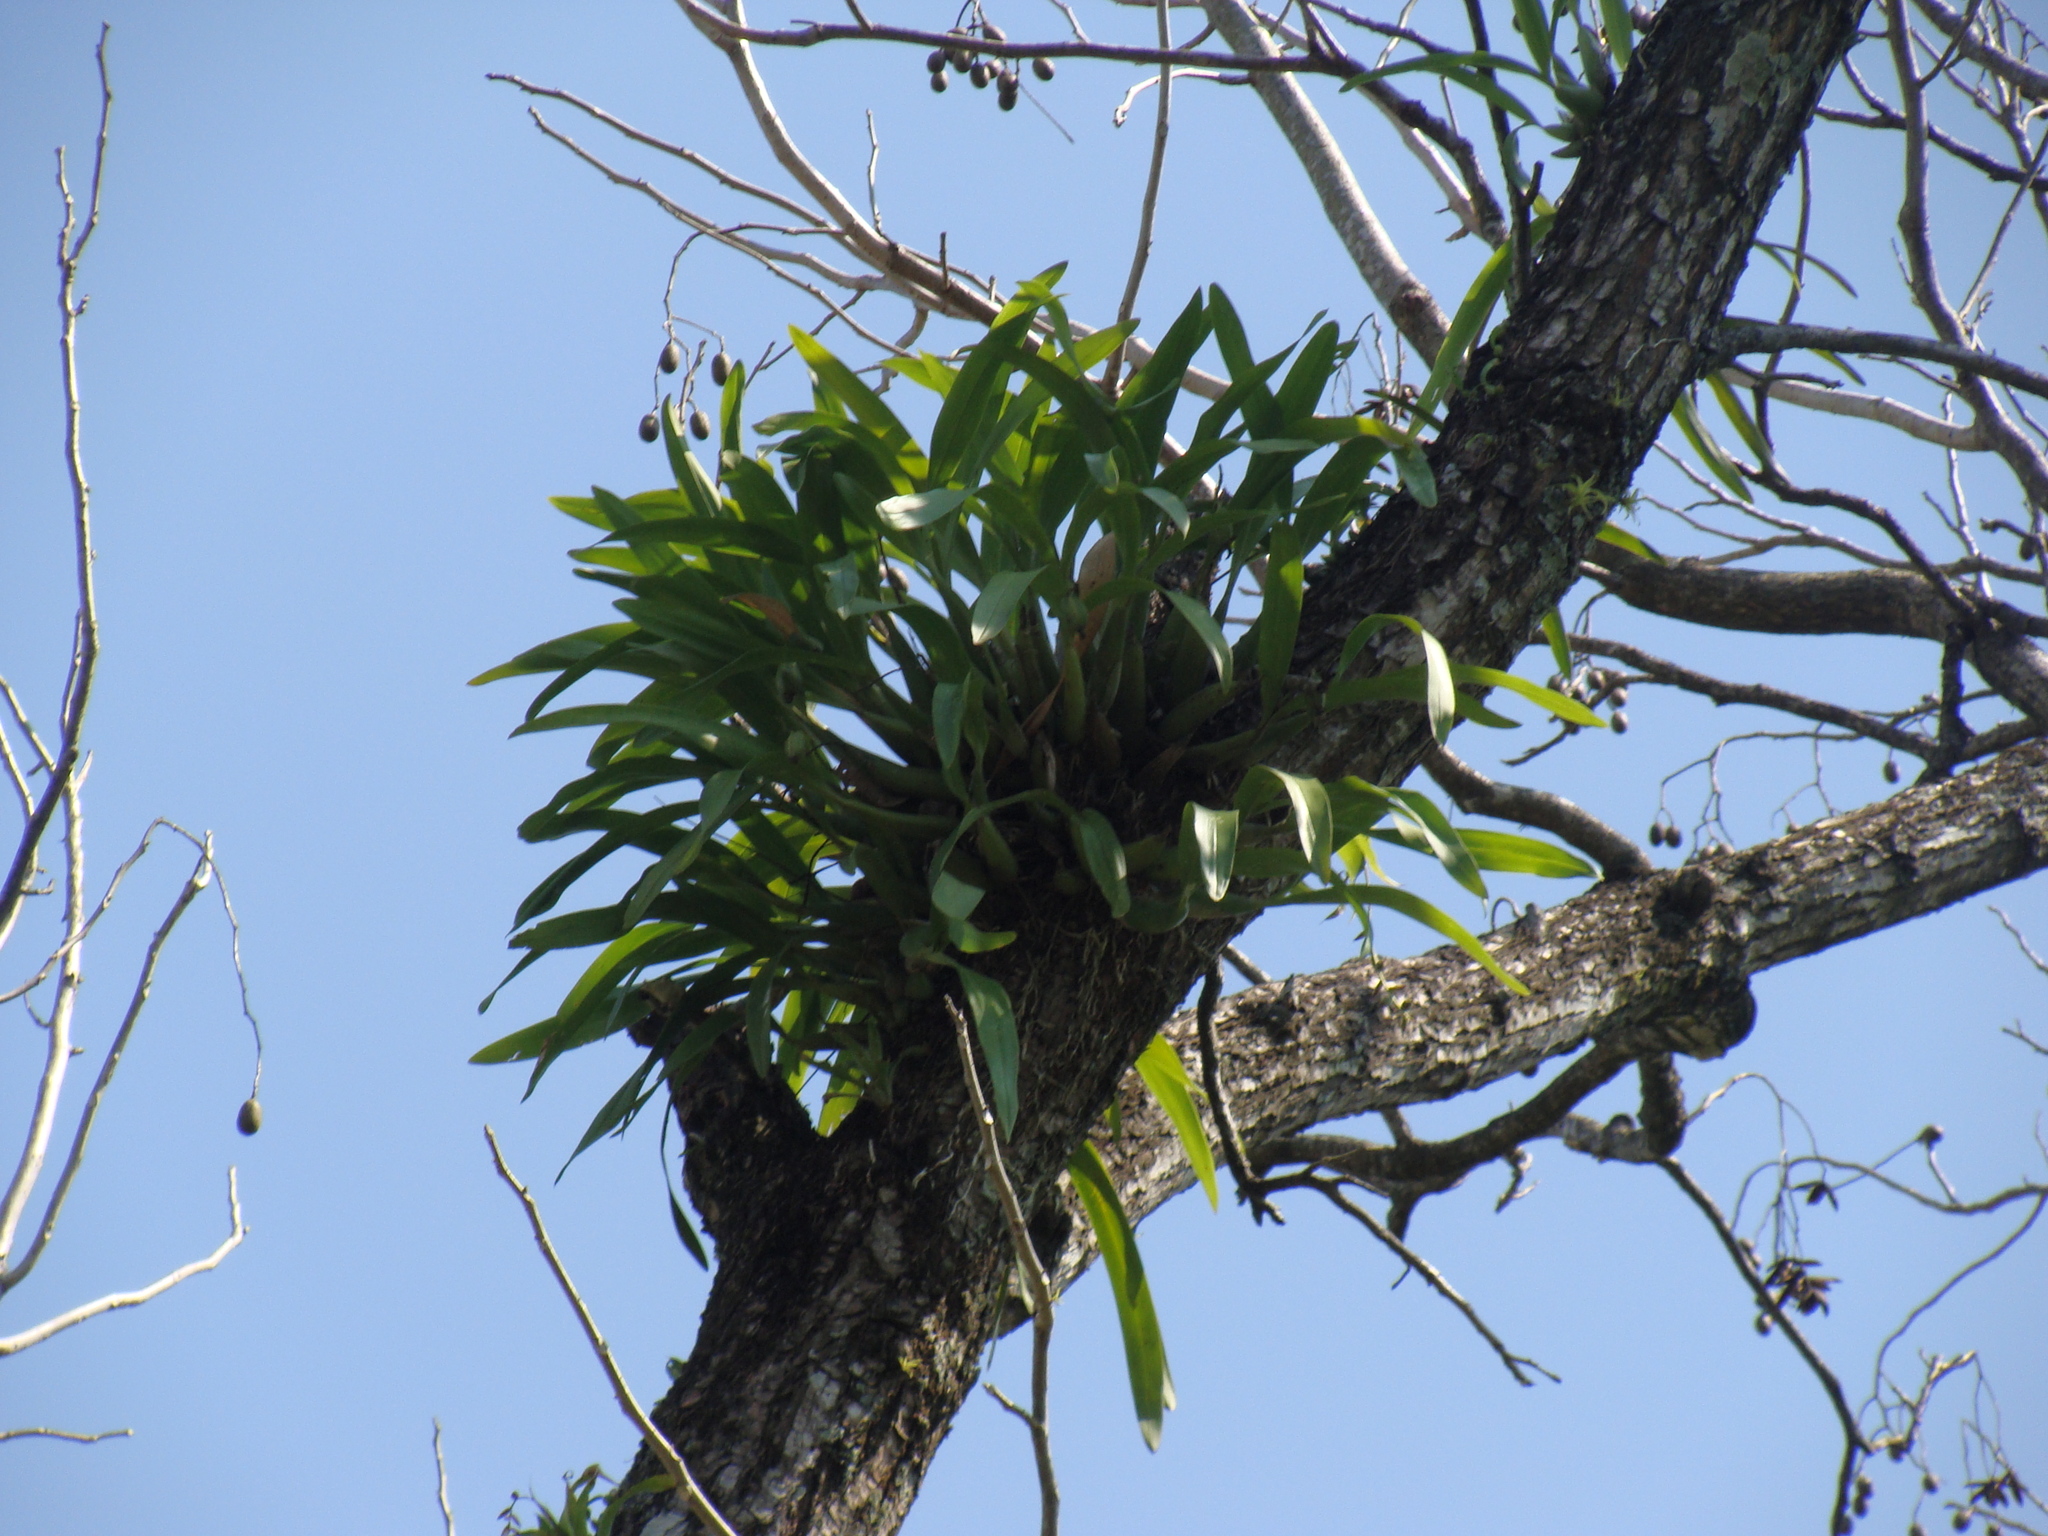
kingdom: Plantae
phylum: Tracheophyta
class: Liliopsida
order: Asparagales
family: Orchidaceae
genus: Encyclia
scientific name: Encyclia cordigera
